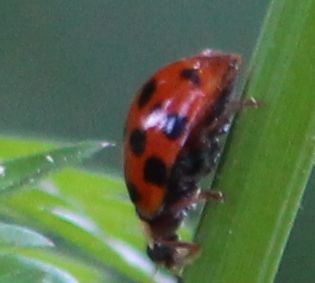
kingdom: Animalia
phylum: Arthropoda
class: Insecta
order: Coleoptera
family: Coccinellidae
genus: Harmonia
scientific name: Harmonia axyridis
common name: Harlequin ladybird
